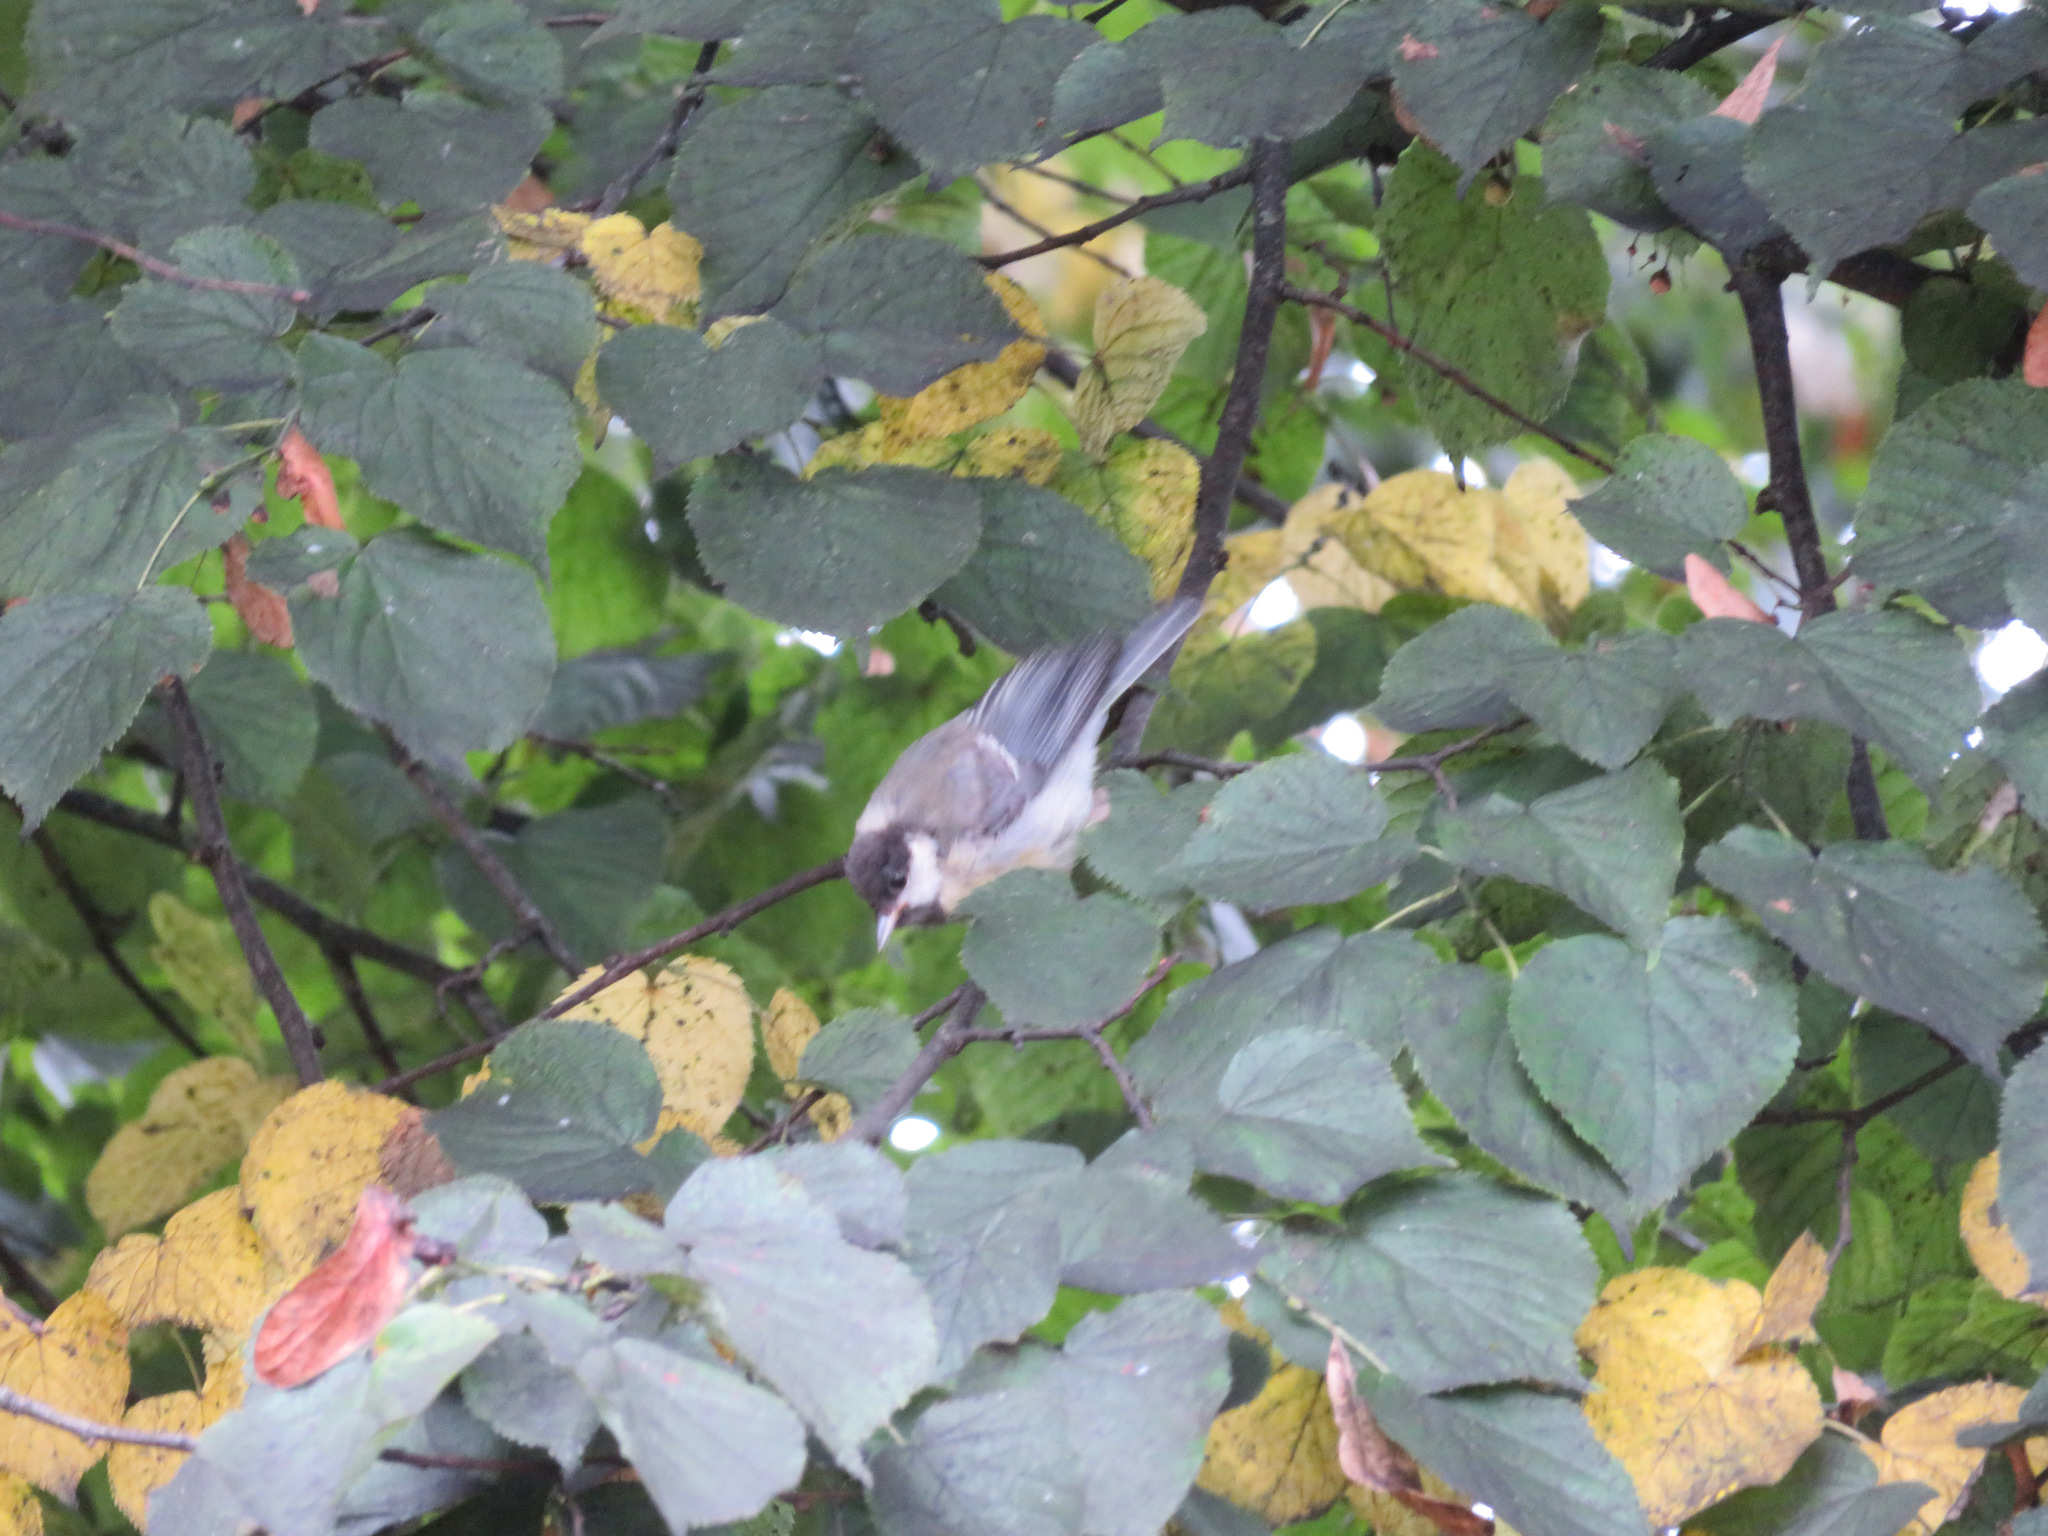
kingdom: Animalia
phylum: Chordata
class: Aves
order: Passeriformes
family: Paridae
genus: Parus
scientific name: Parus major
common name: Great tit
